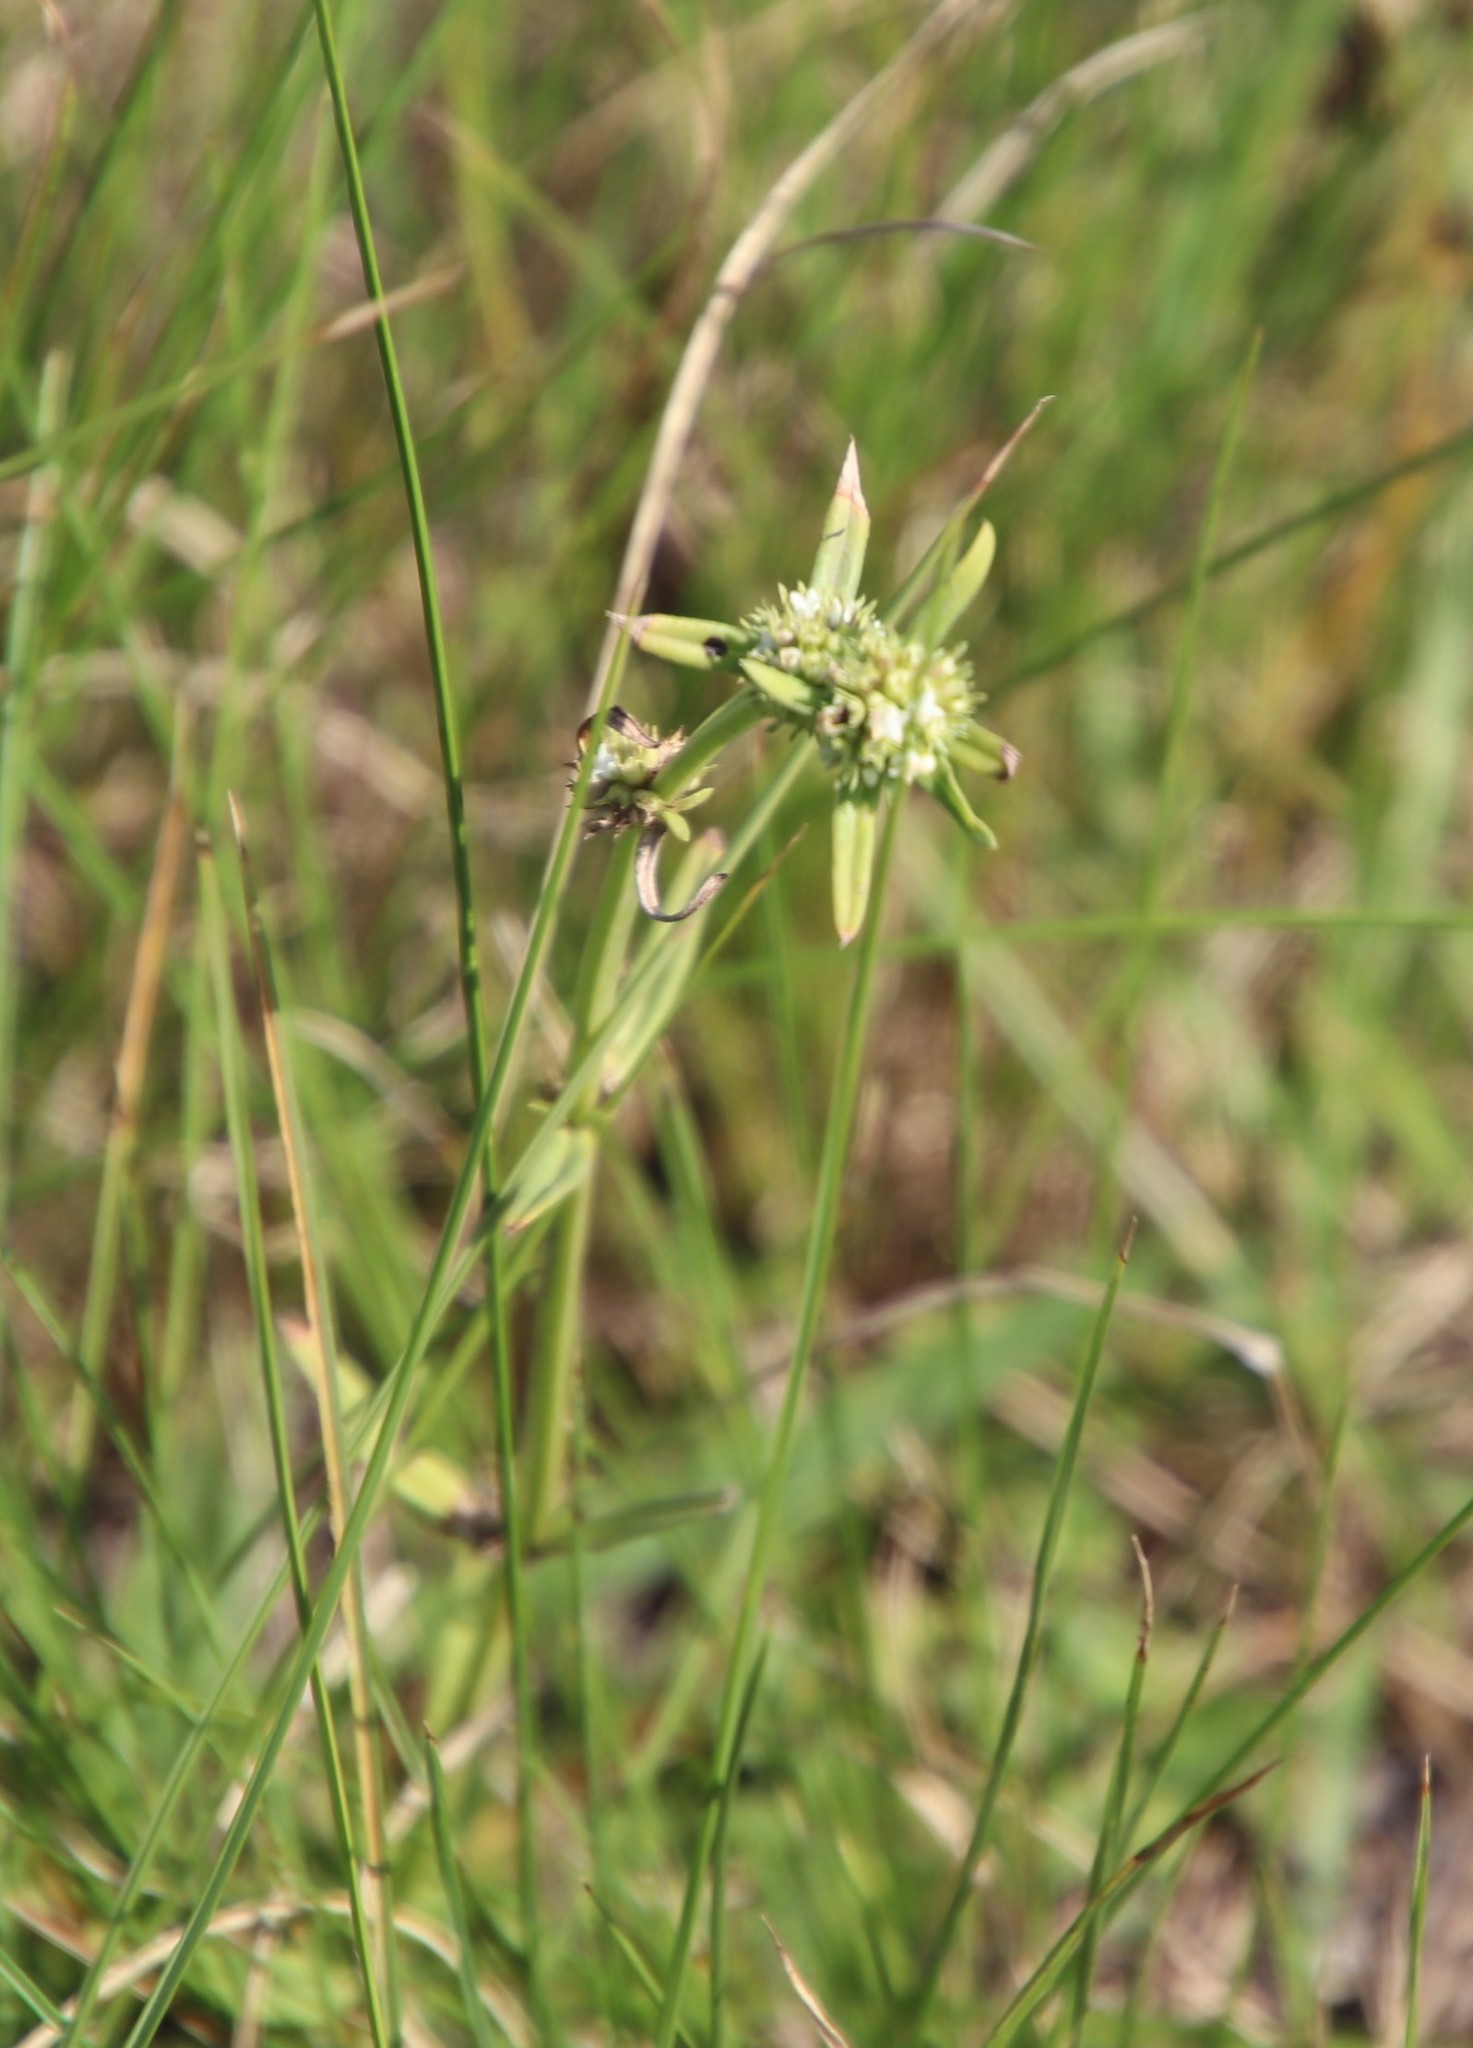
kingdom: Plantae
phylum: Tracheophyta
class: Magnoliopsida
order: Gentianales
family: Rubiaceae
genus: Spermacoce
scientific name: Spermacoce natalensis
